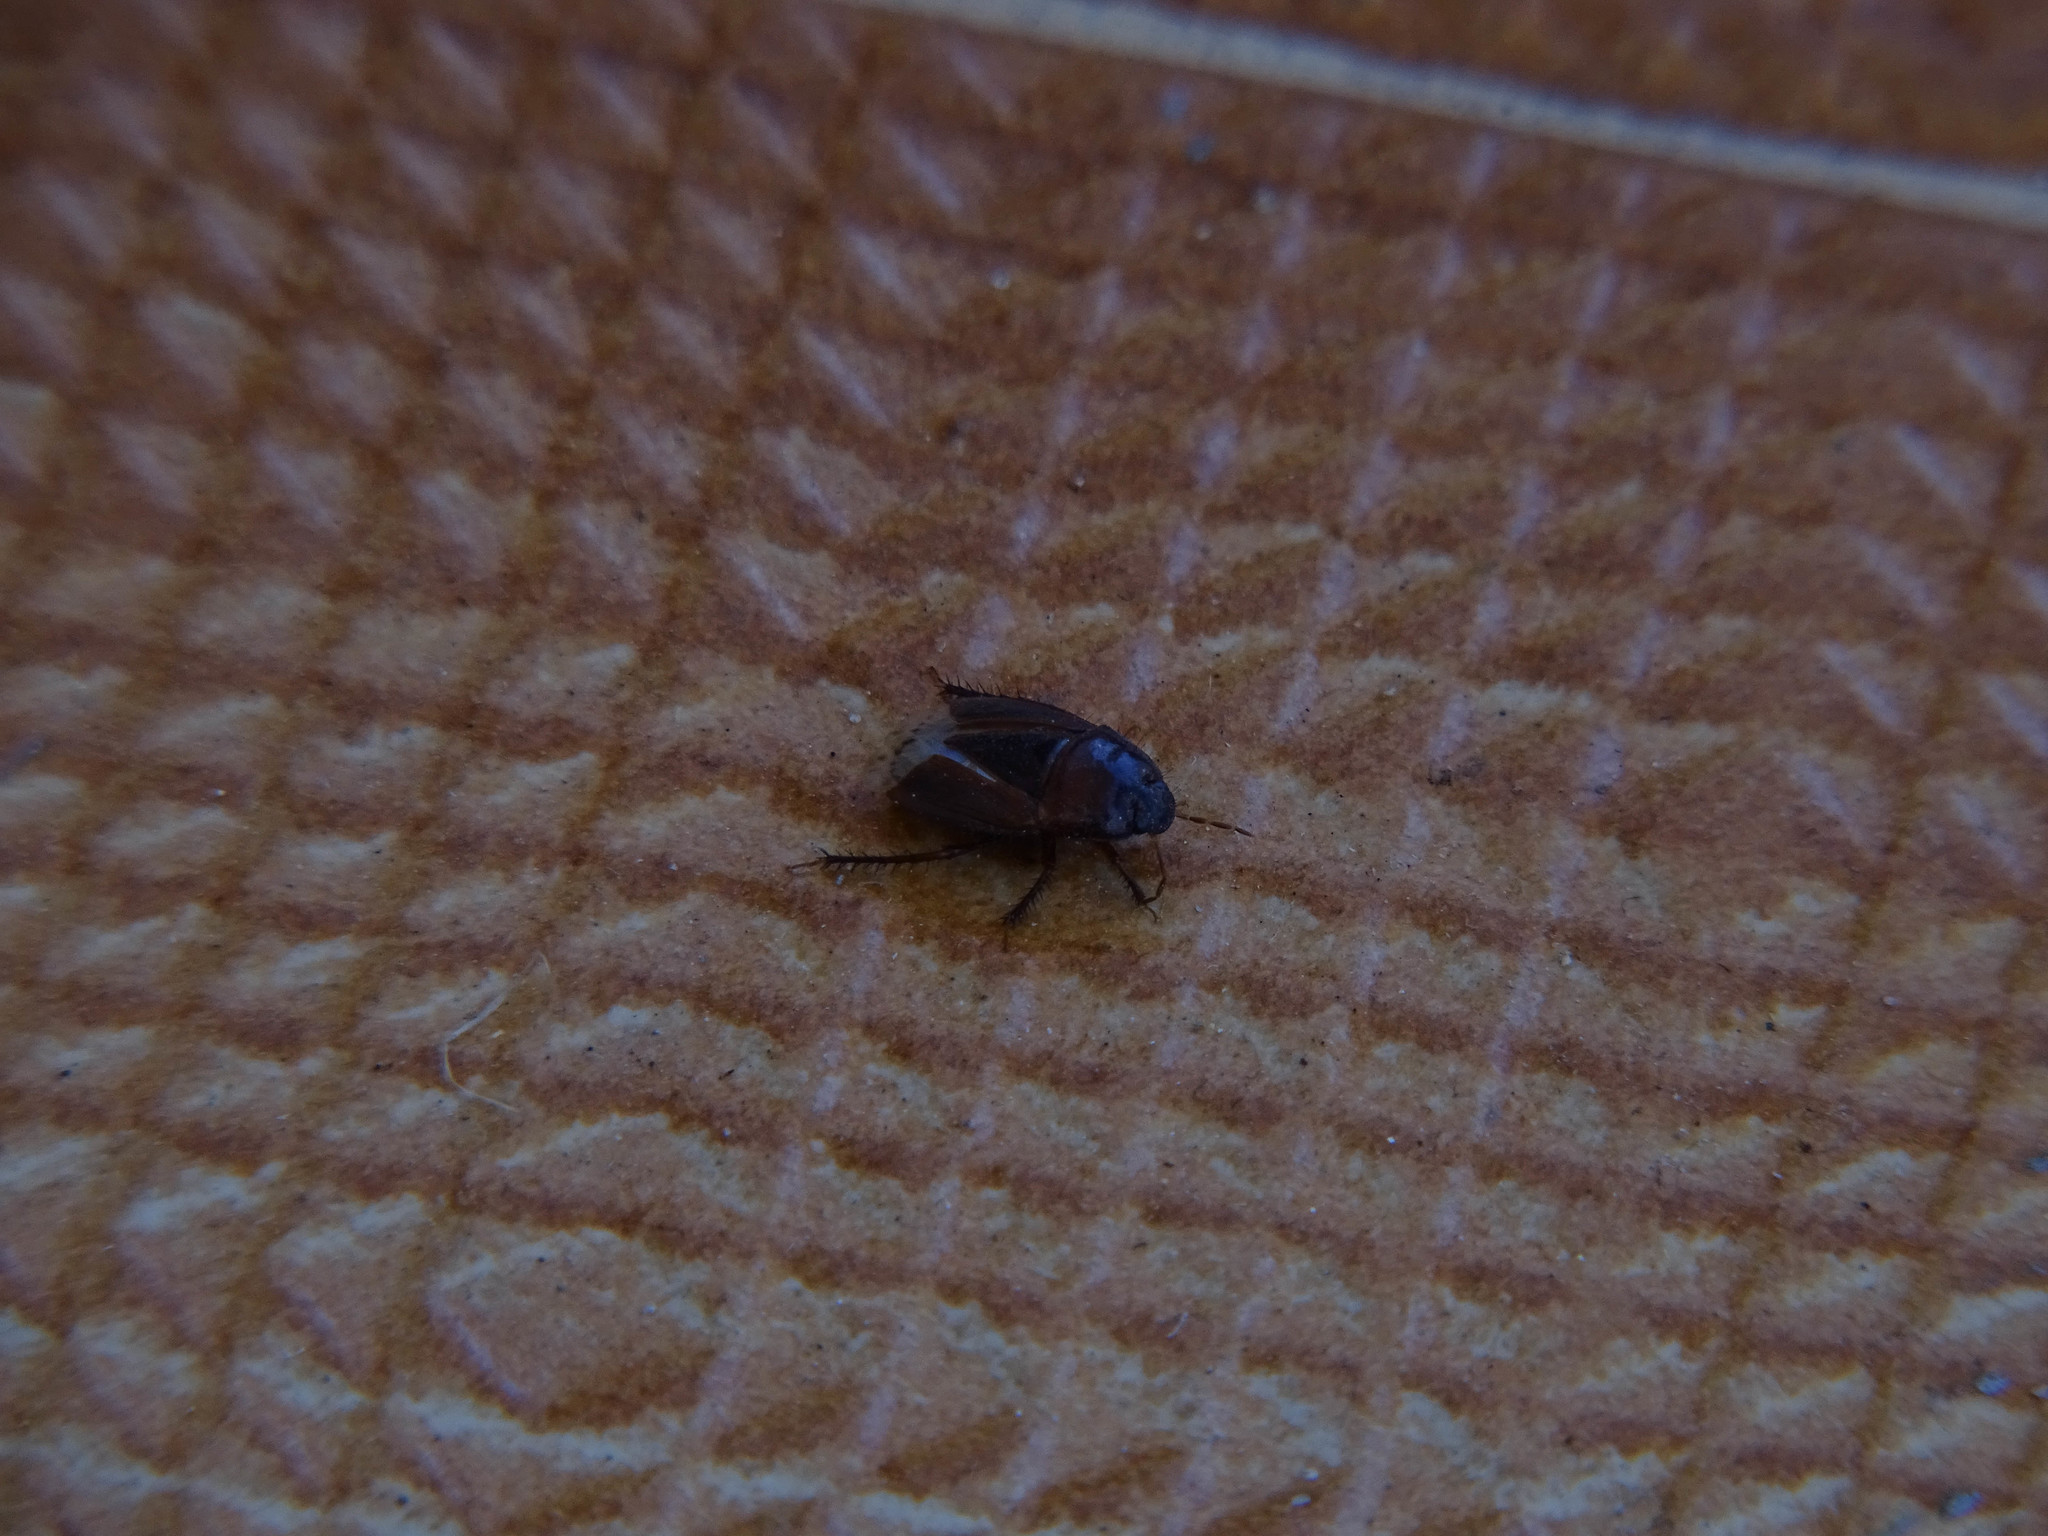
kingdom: Animalia
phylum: Arthropoda
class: Insecta
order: Hemiptera
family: Cydnidae
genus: Macroscytus
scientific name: Macroscytus brunneus
